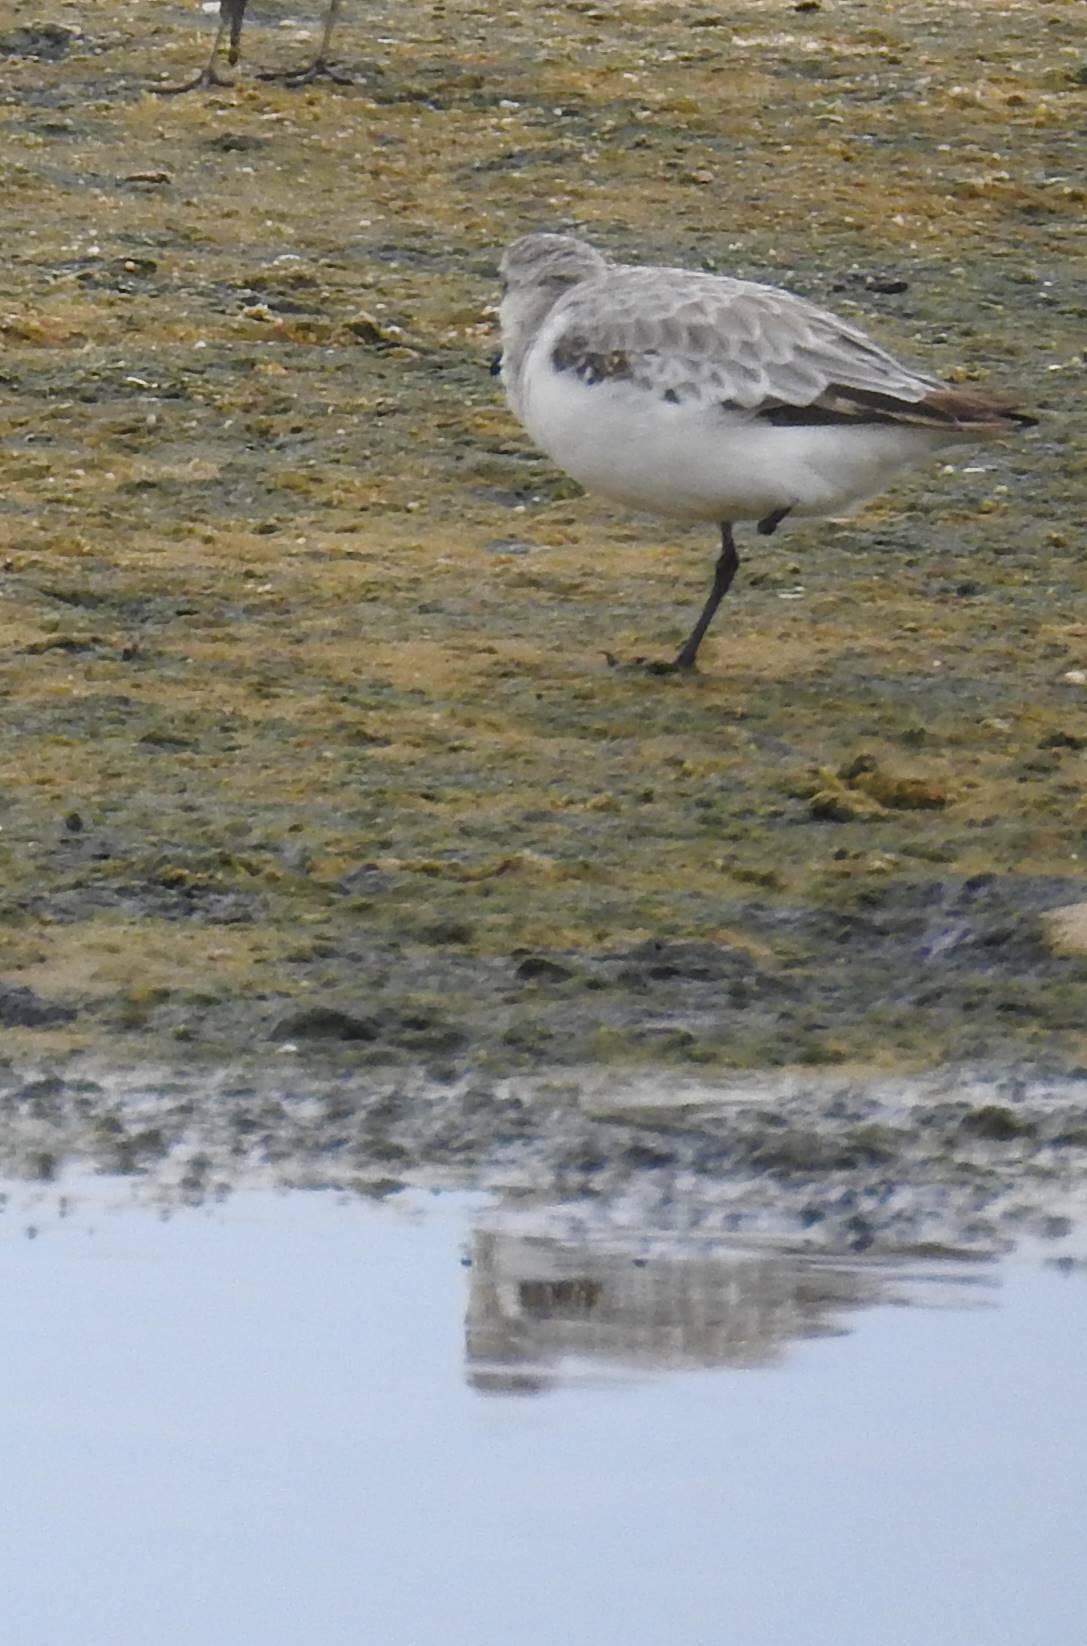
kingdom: Animalia
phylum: Chordata
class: Aves
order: Charadriiformes
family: Scolopacidae
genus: Calidris
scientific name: Calidris minuta
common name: Little stint
